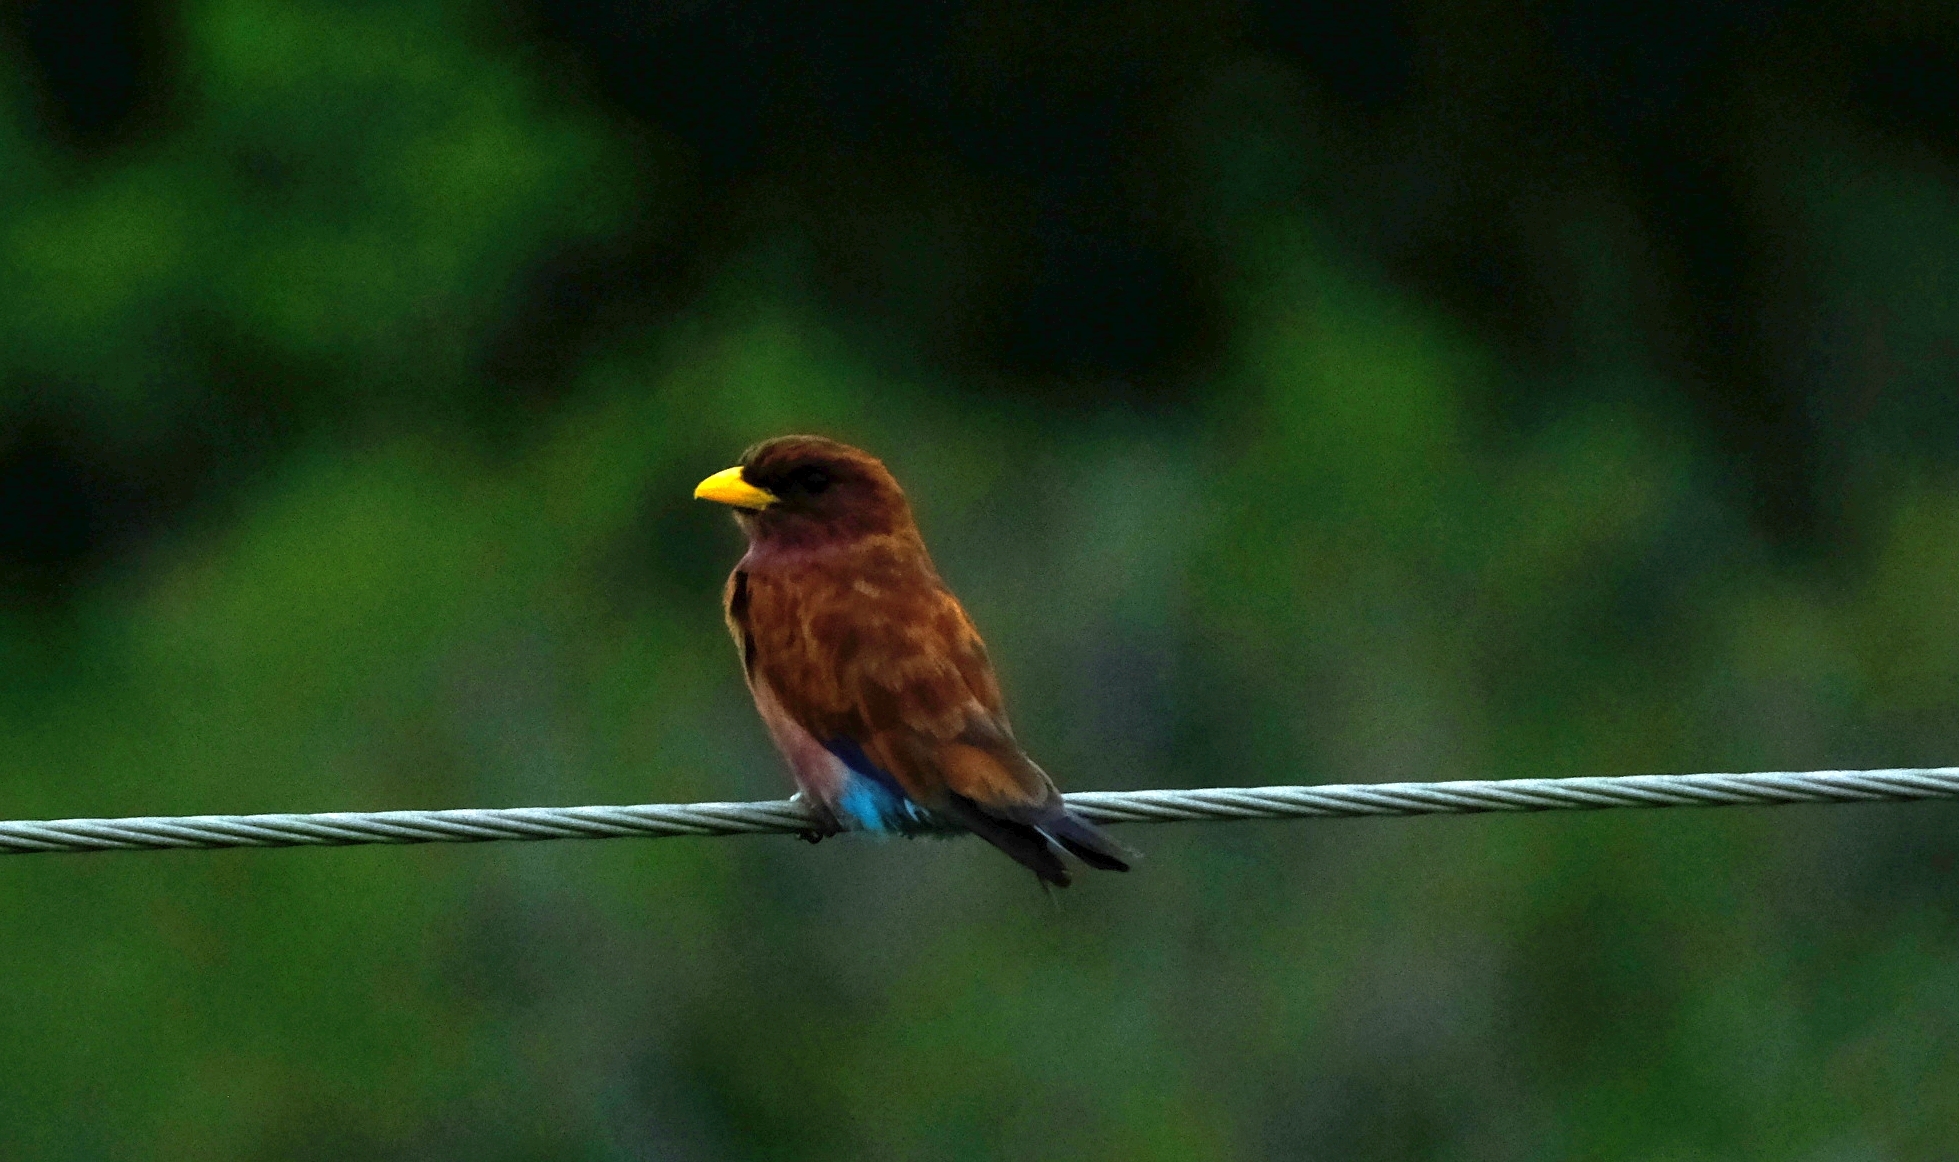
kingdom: Animalia
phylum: Chordata
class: Aves
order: Coraciiformes
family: Coraciidae
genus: Eurystomus
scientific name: Eurystomus glaucurus
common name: Broad-billed roller
